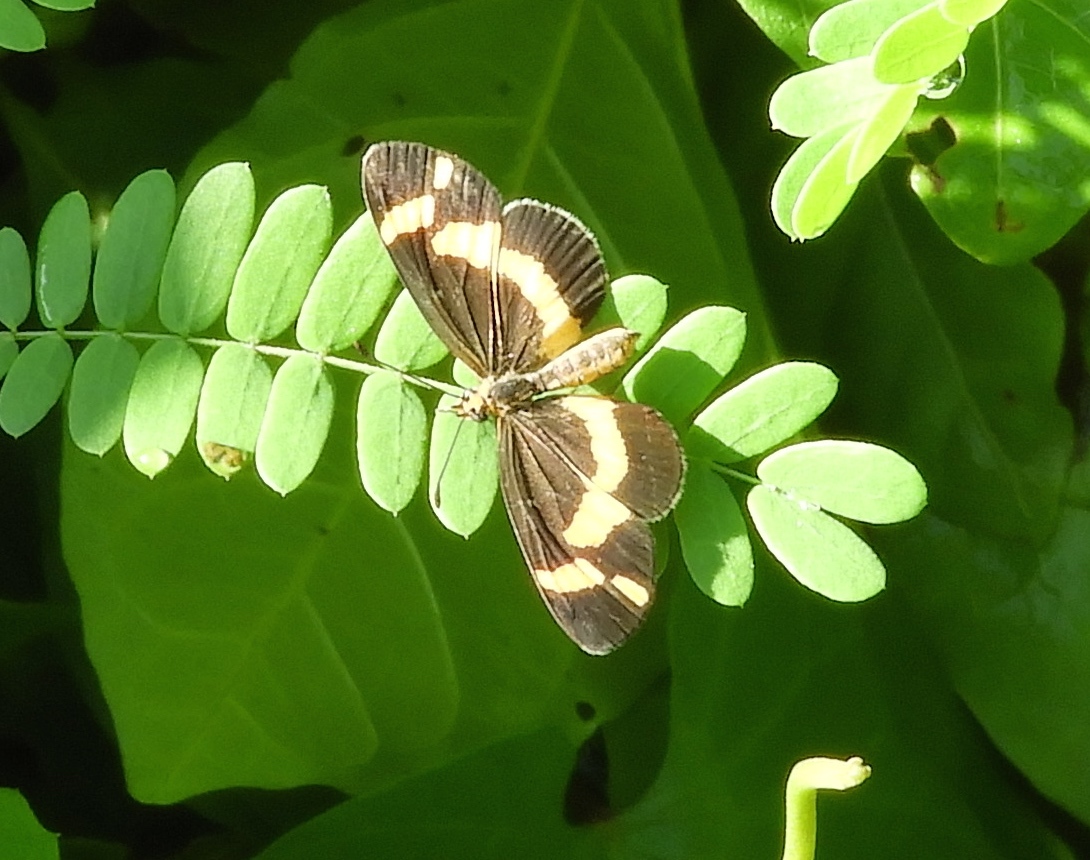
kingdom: Animalia
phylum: Arthropoda
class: Insecta
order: Lepidoptera
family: Nymphalidae
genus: Microtia
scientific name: Microtia elva
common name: Elf
